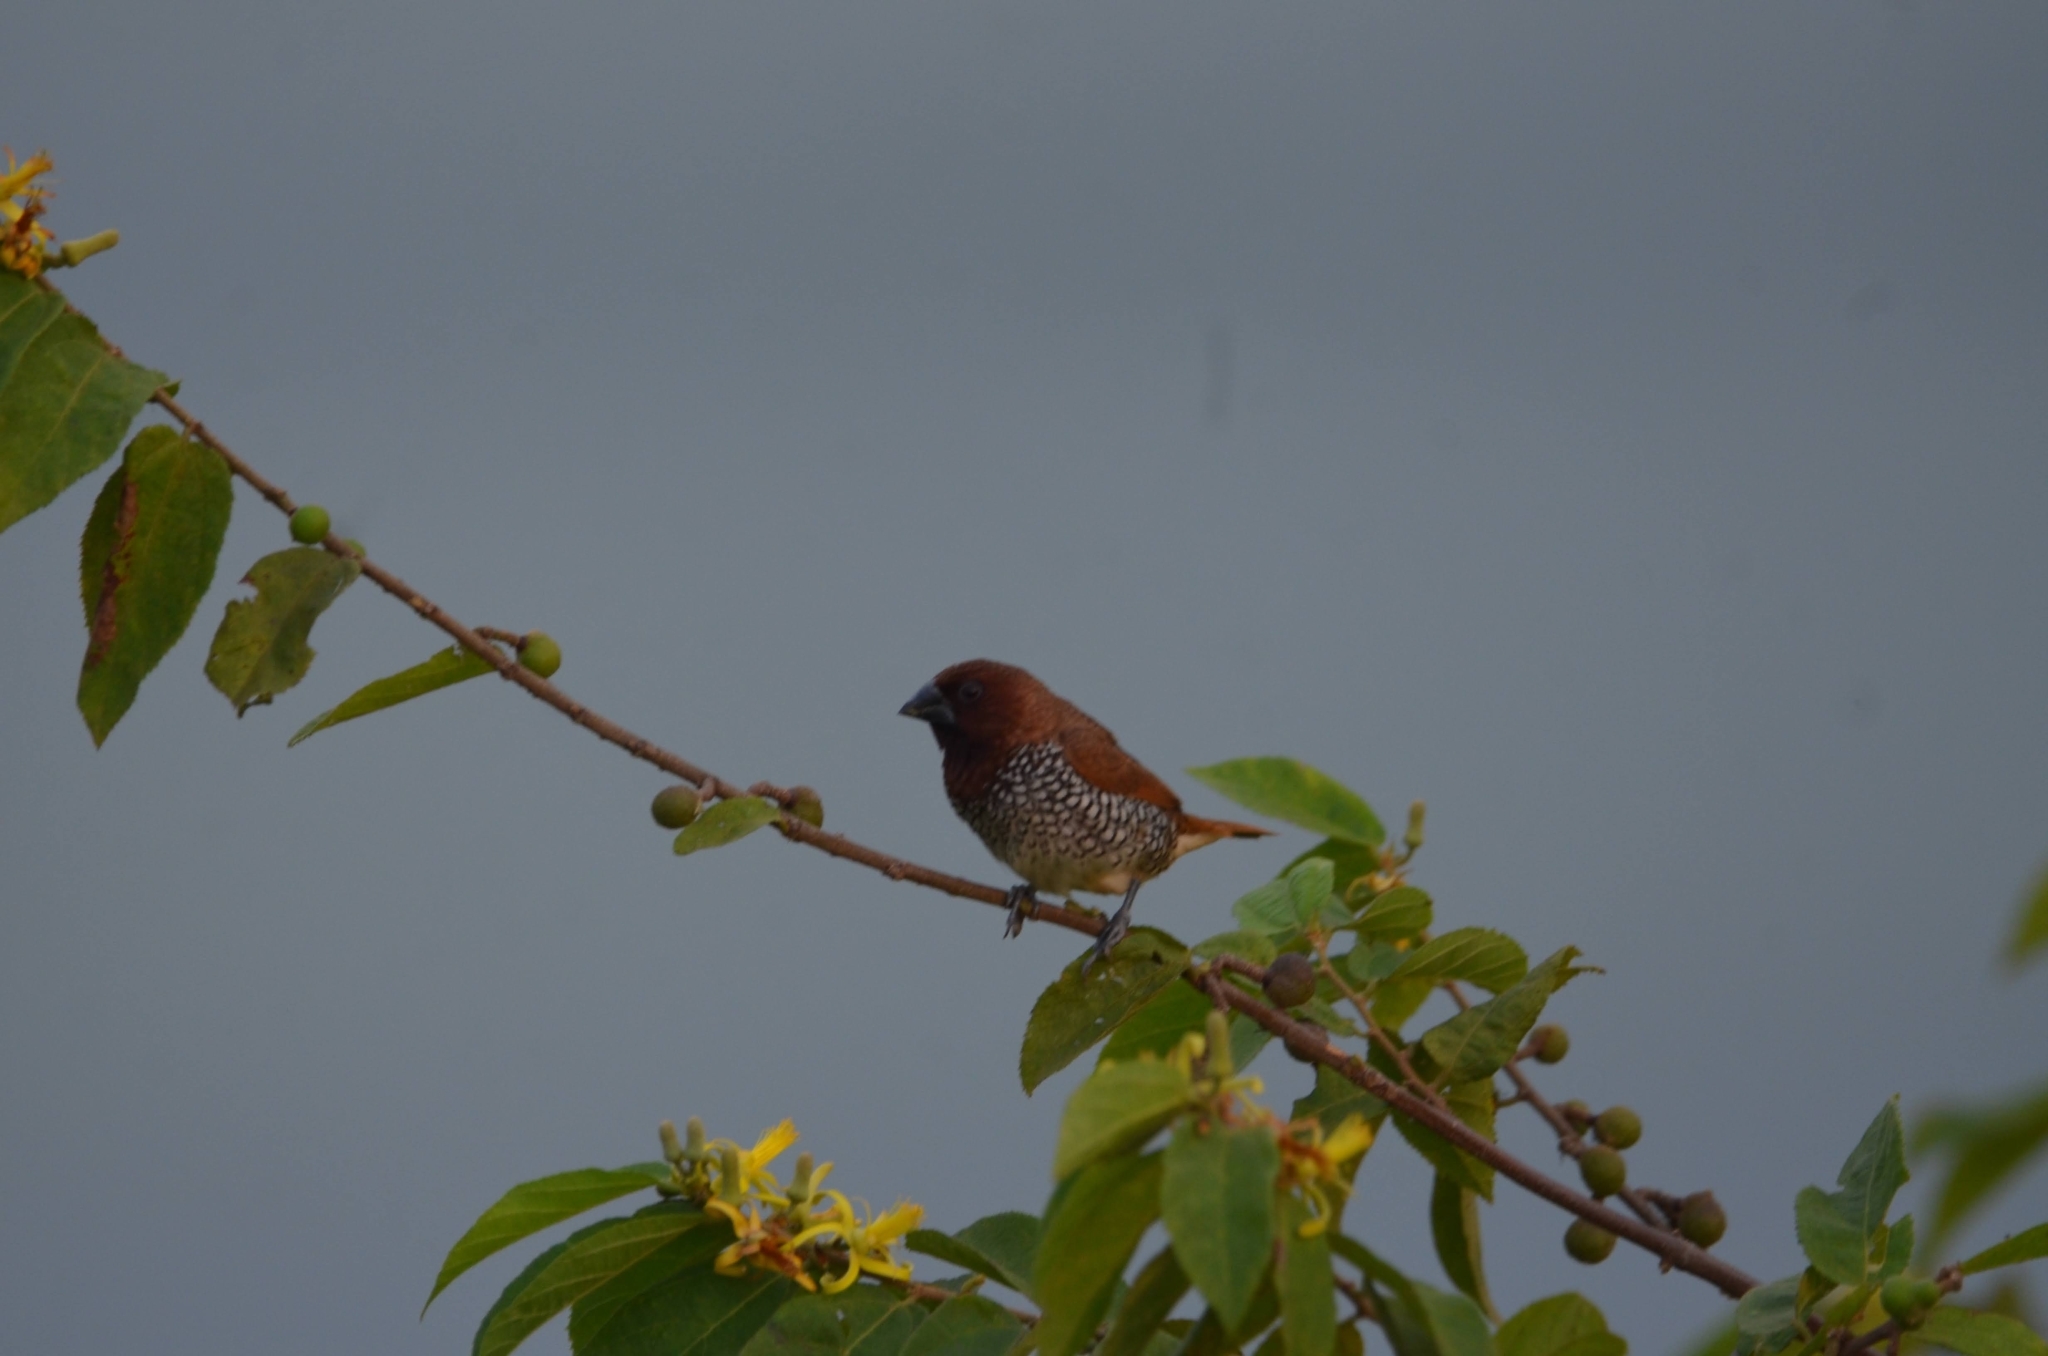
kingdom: Animalia
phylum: Chordata
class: Aves
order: Passeriformes
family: Estrildidae
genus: Lonchura
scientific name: Lonchura punctulata
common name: Scaly-breasted munia
